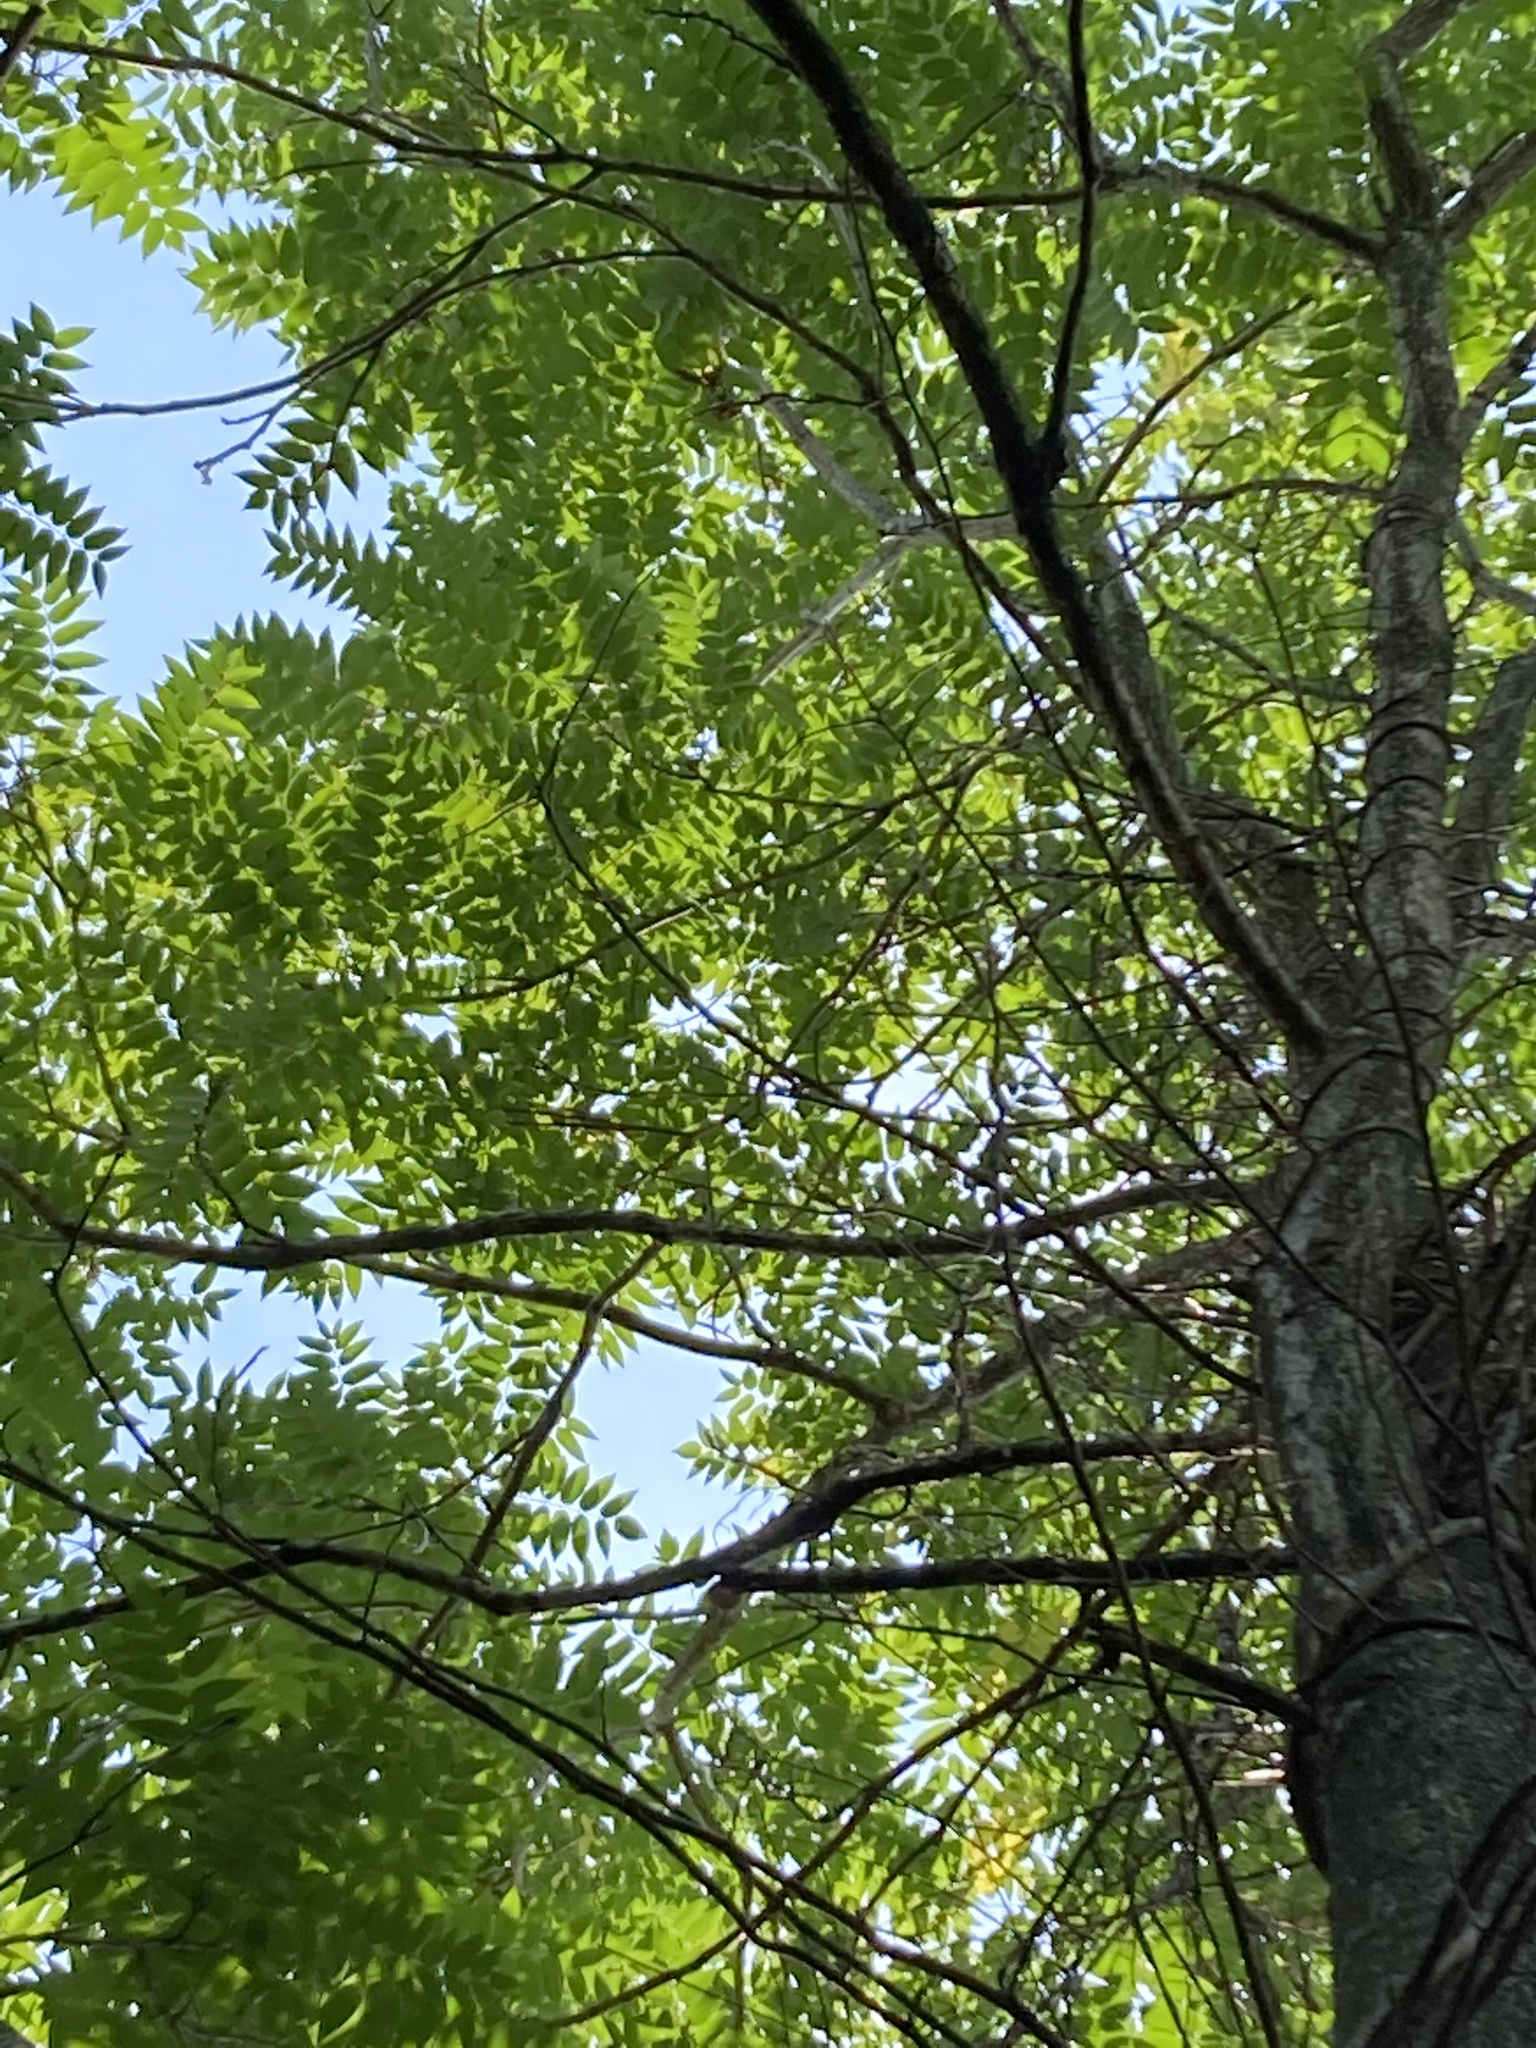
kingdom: Plantae
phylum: Tracheophyta
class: Magnoliopsida
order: Sapindales
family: Simaroubaceae
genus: Ailanthus
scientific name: Ailanthus altissima
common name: Tree-of-heaven
